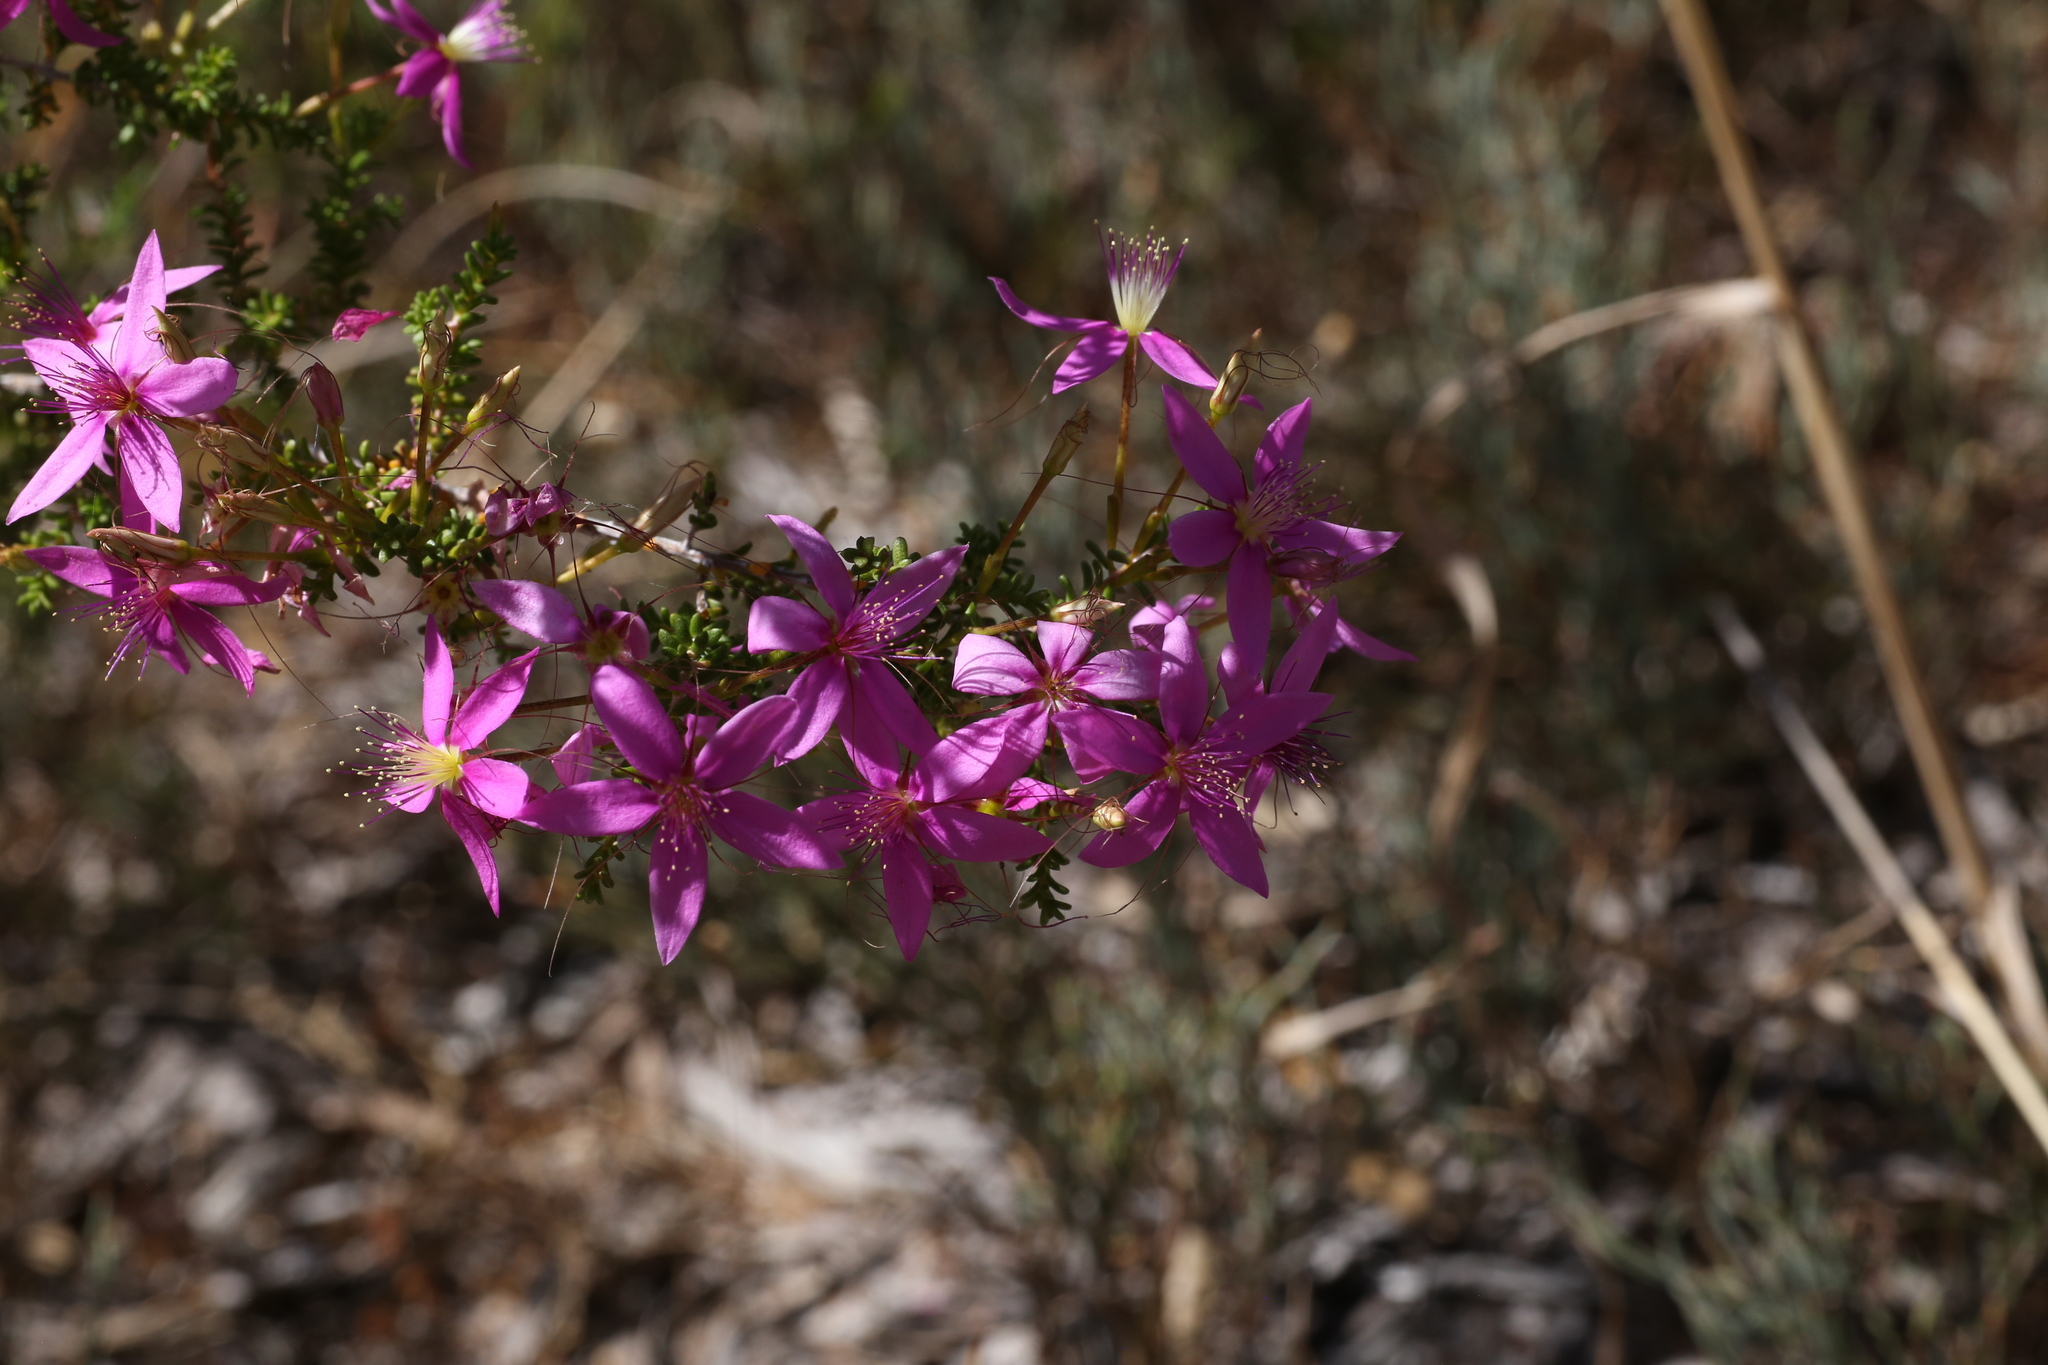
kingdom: Plantae
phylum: Tracheophyta
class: Magnoliopsida
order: Myrtales
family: Myrtaceae
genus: Calytrix
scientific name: Calytrix fraseri
